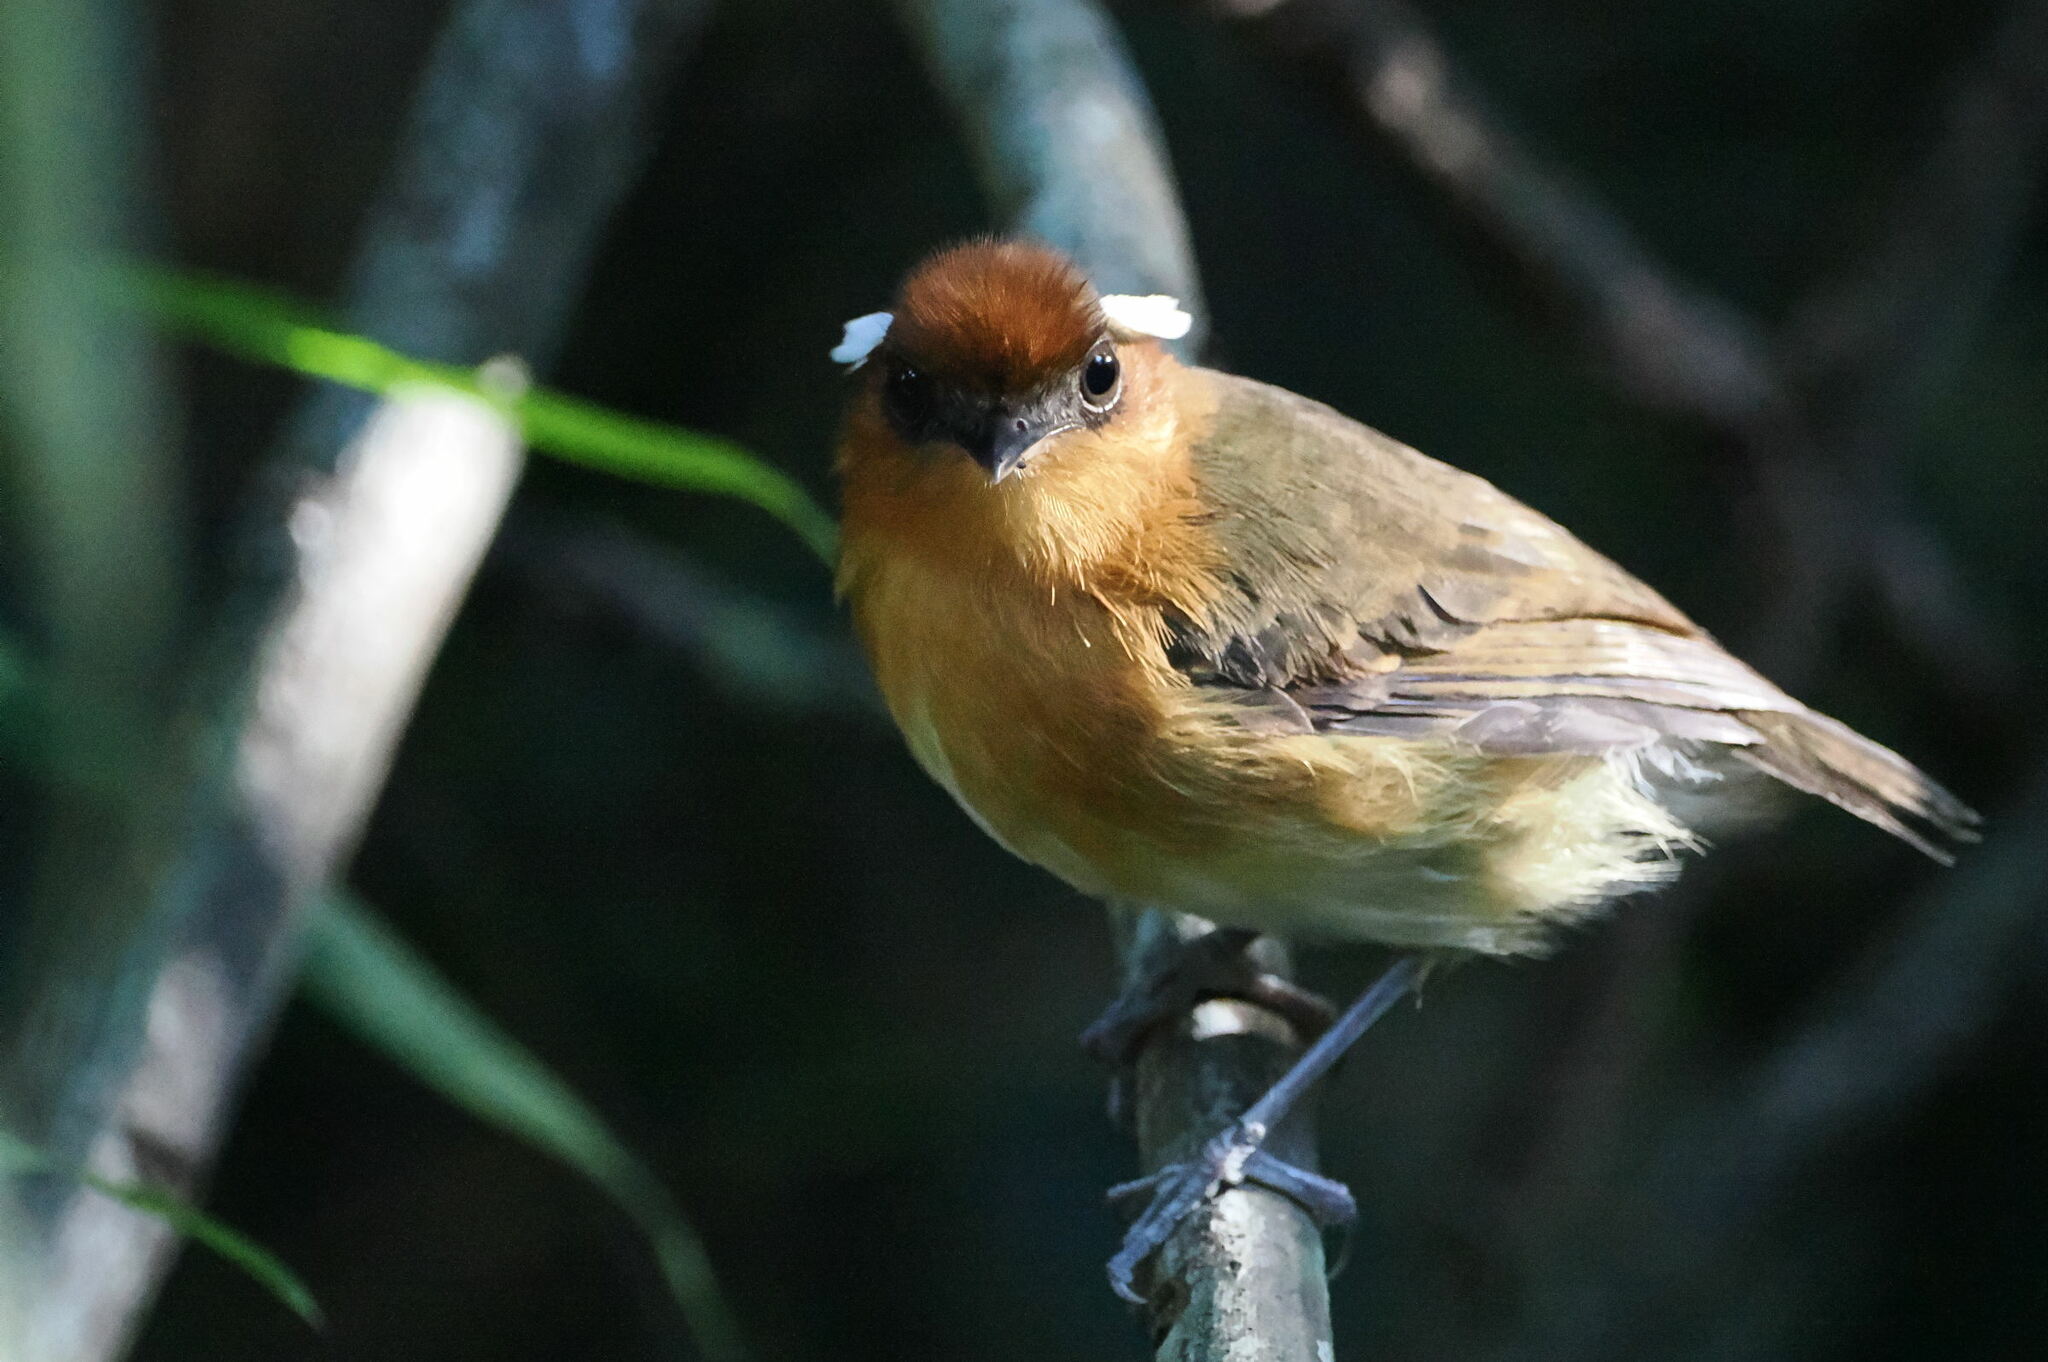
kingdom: Animalia
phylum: Chordata
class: Aves
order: Passeriformes
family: Conopophagidae
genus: Conopophaga
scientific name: Conopophaga cearae
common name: Ceara gnateater
